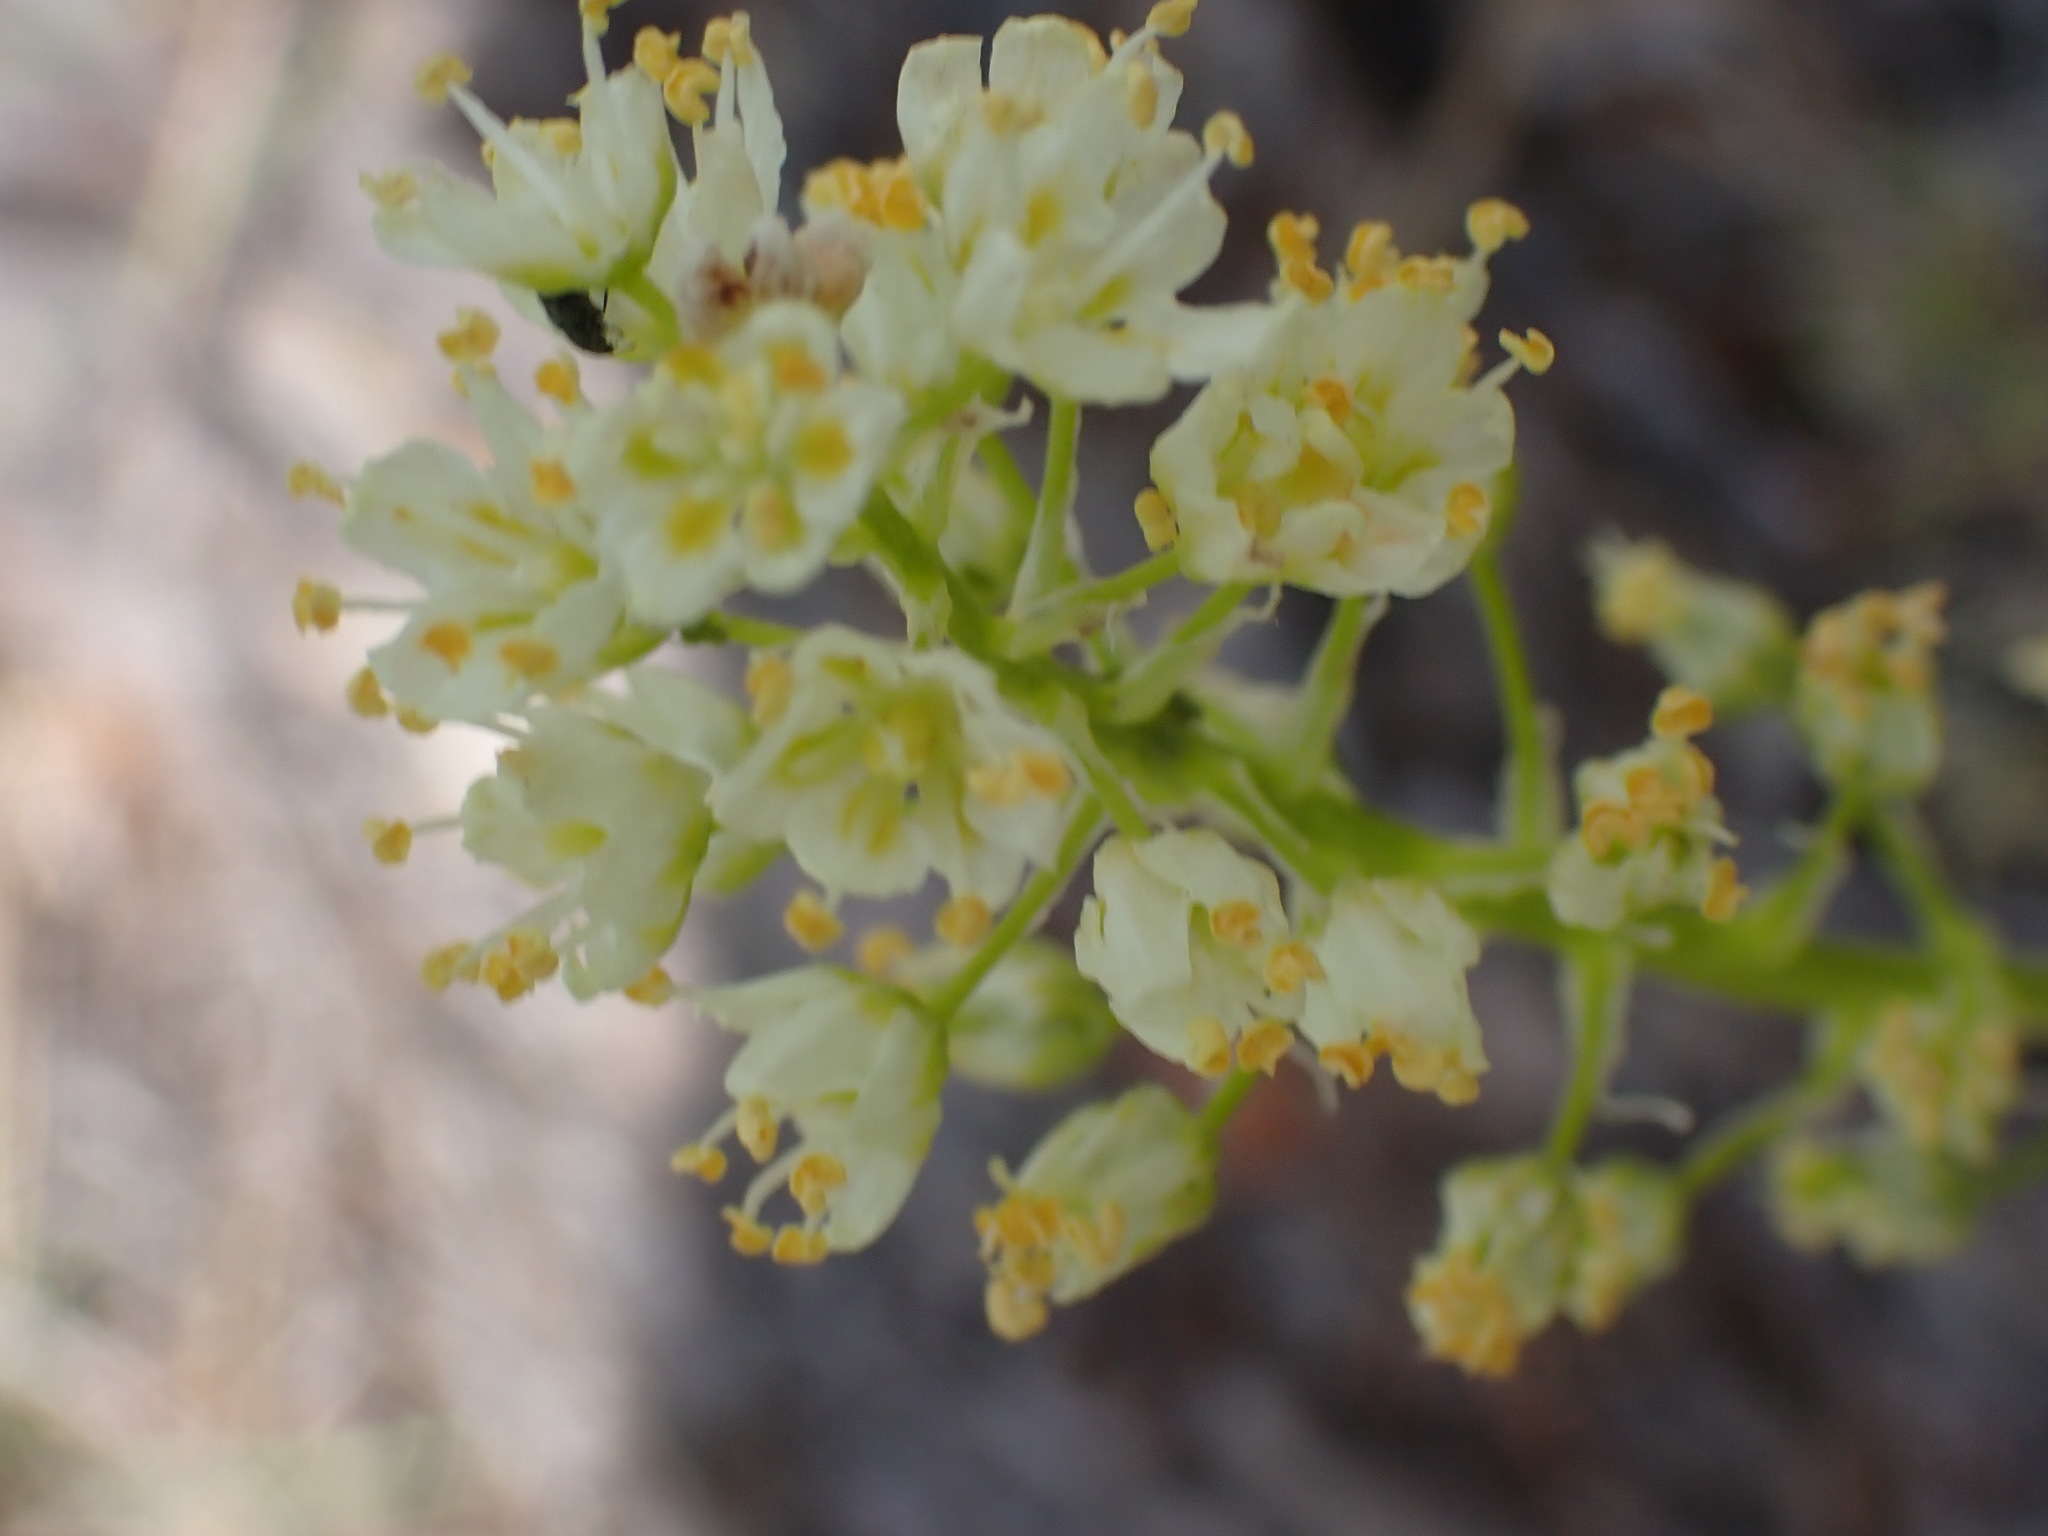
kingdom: Plantae
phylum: Tracheophyta
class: Liliopsida
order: Liliales
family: Melanthiaceae
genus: Toxicoscordion
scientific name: Toxicoscordion venenosum
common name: Meadow death camas
